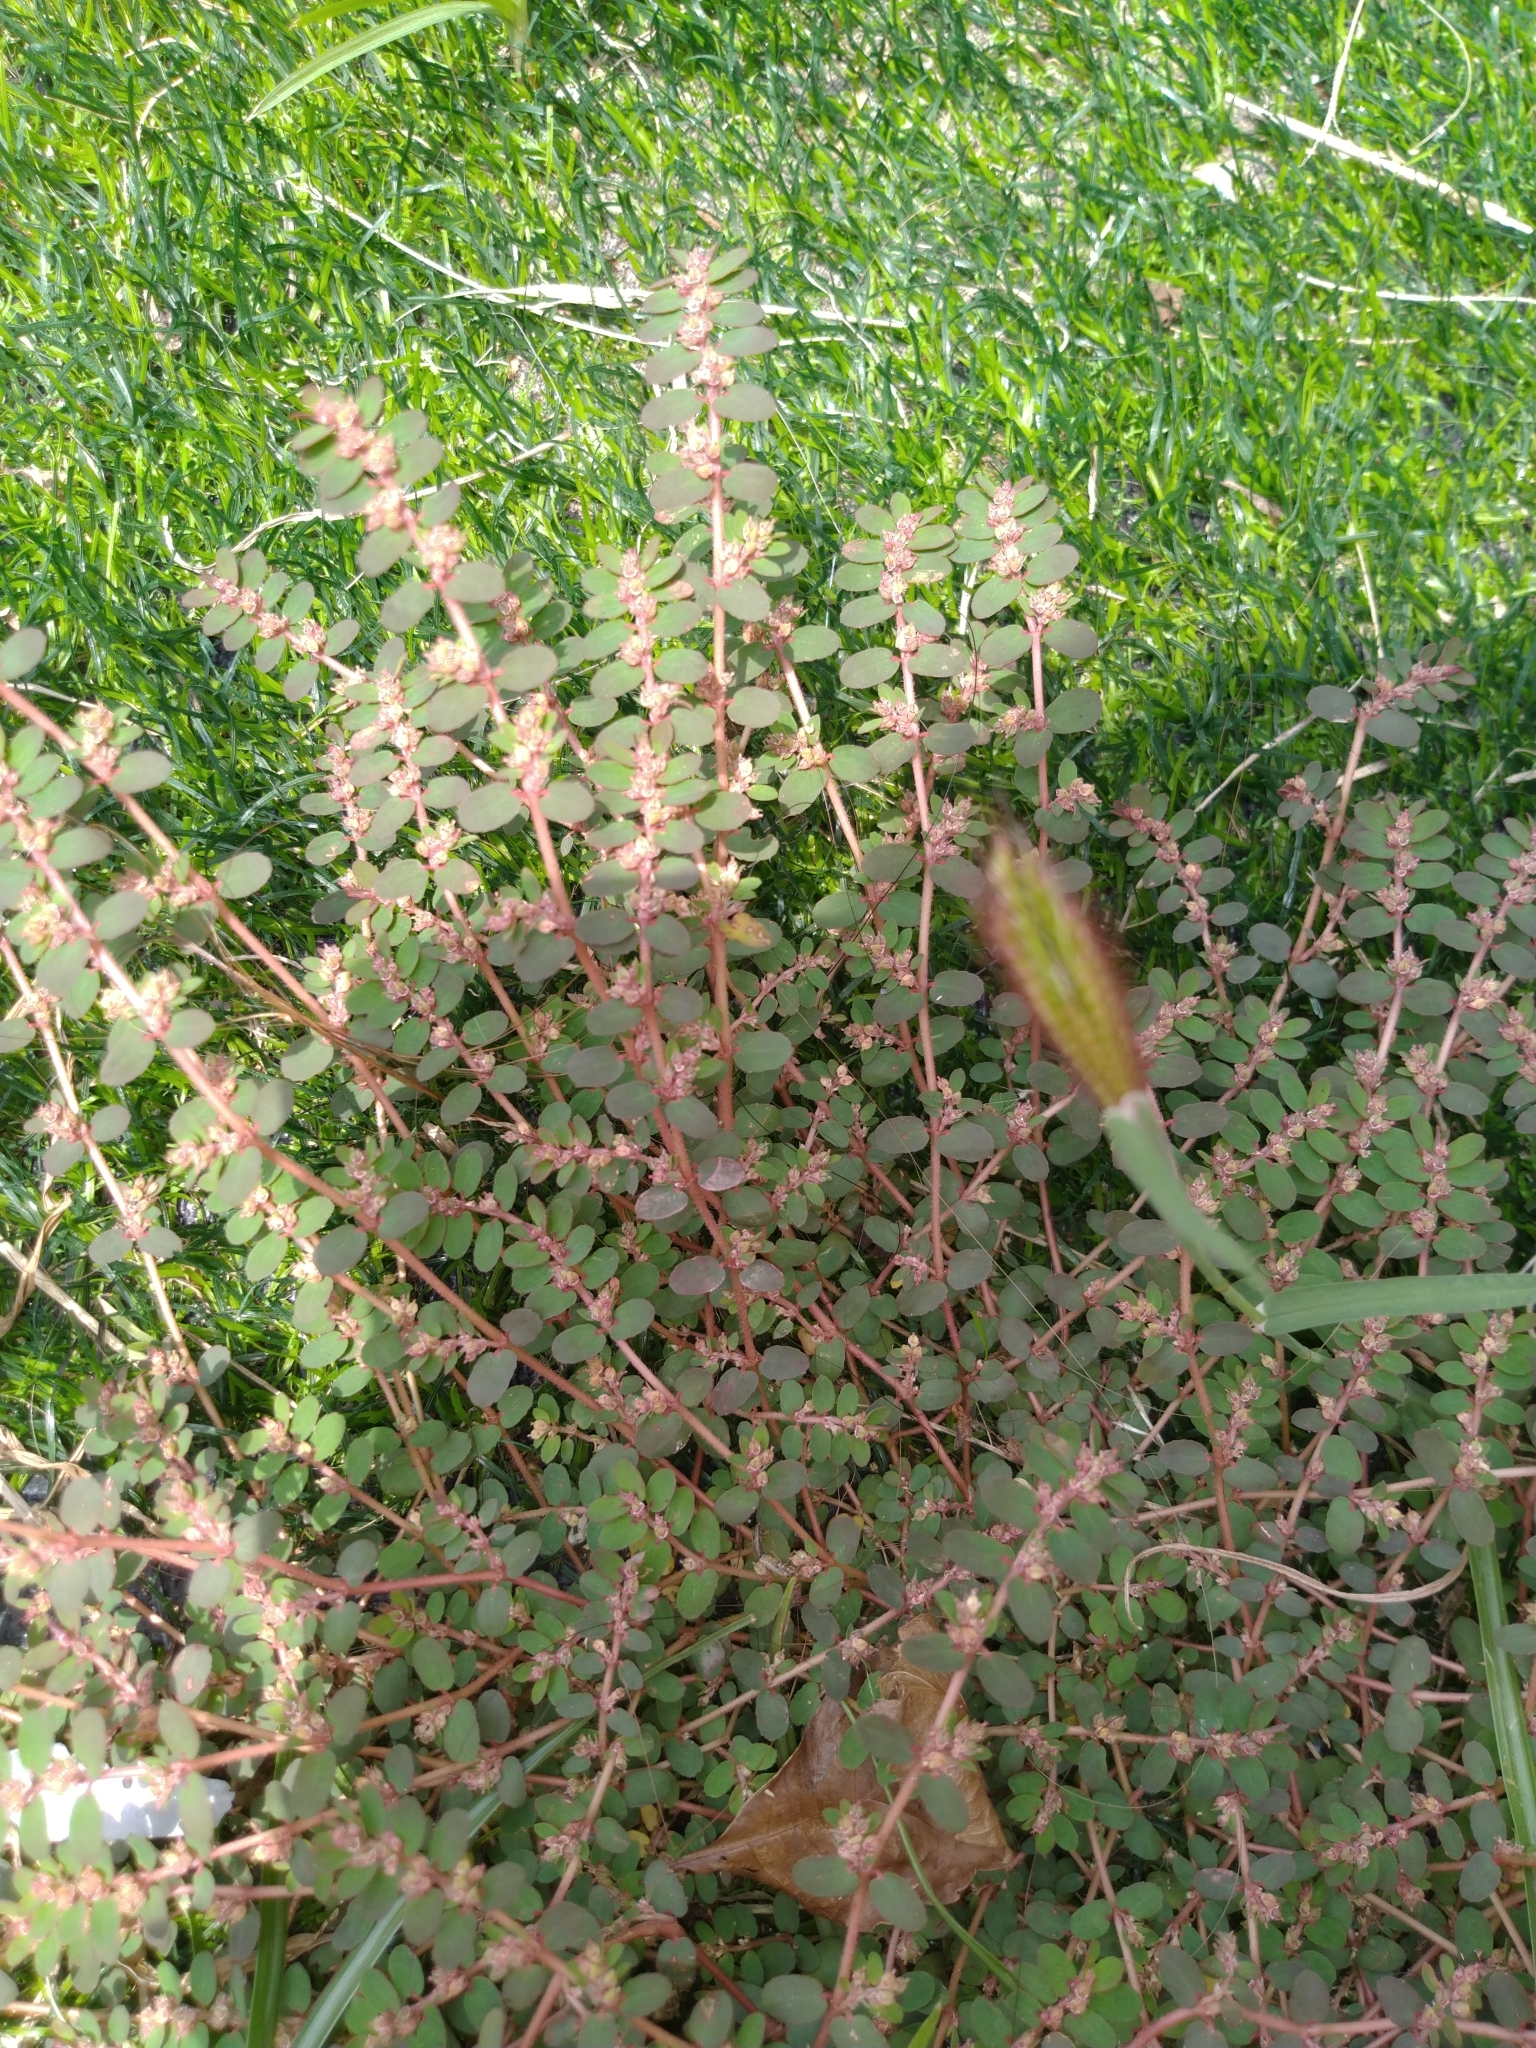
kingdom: Plantae
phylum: Tracheophyta
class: Magnoliopsida
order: Malpighiales
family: Euphorbiaceae
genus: Euphorbia
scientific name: Euphorbia thymifolia
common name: Gulf sandmat
